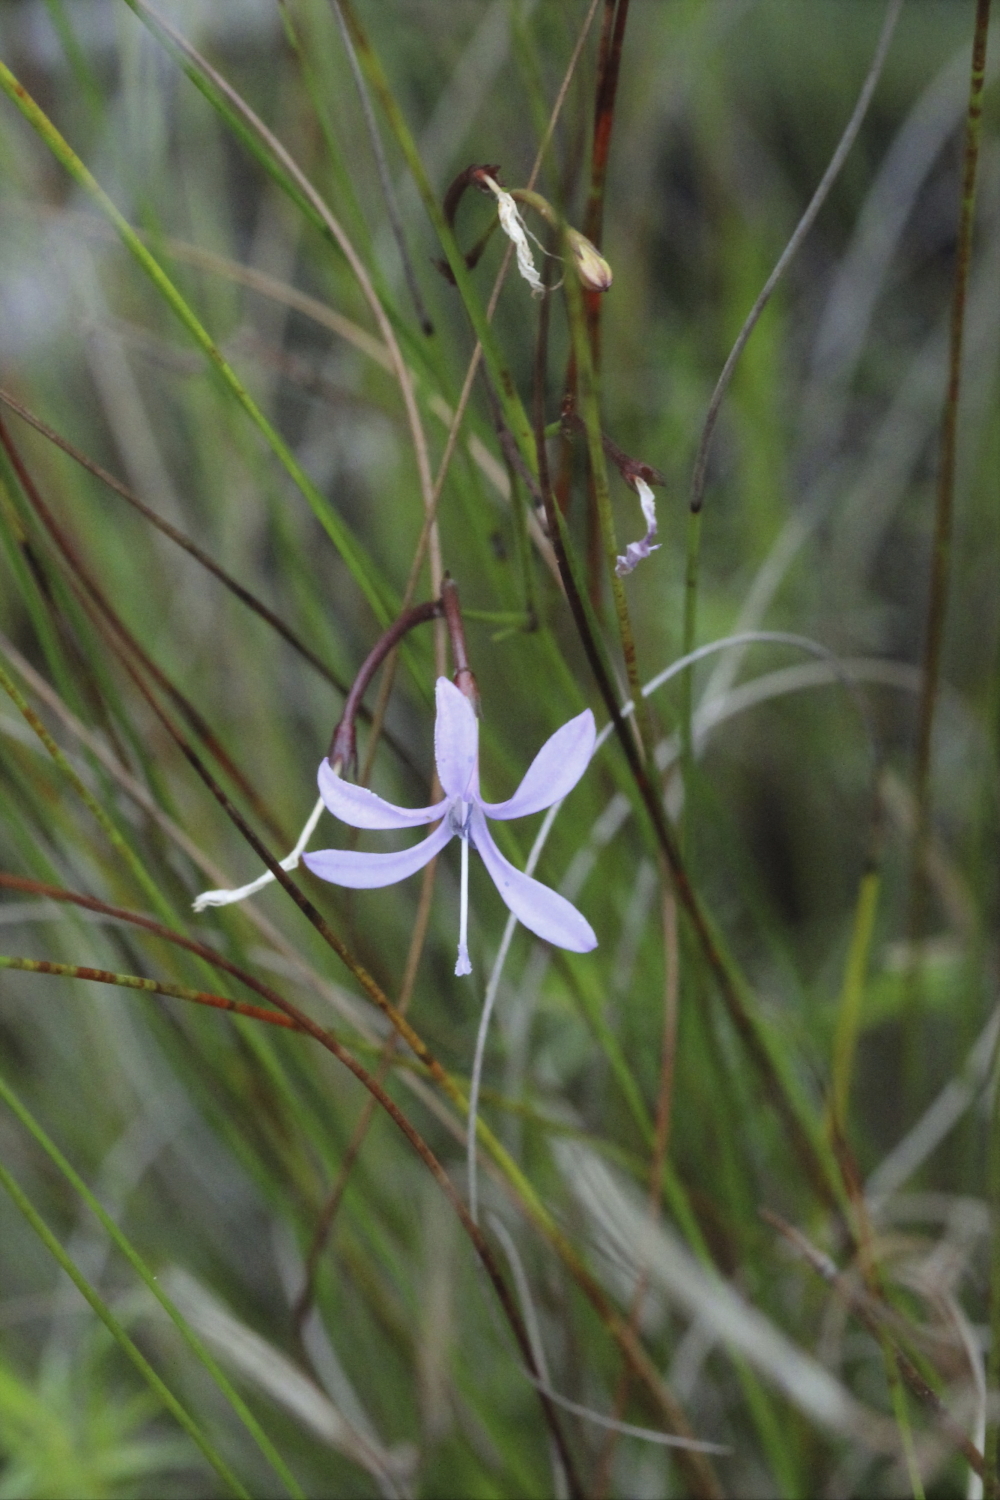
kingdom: Plantae
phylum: Tracheophyta
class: Magnoliopsida
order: Asterales
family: Campanulaceae
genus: Prismatocarpus
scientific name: Prismatocarpus diffusus
